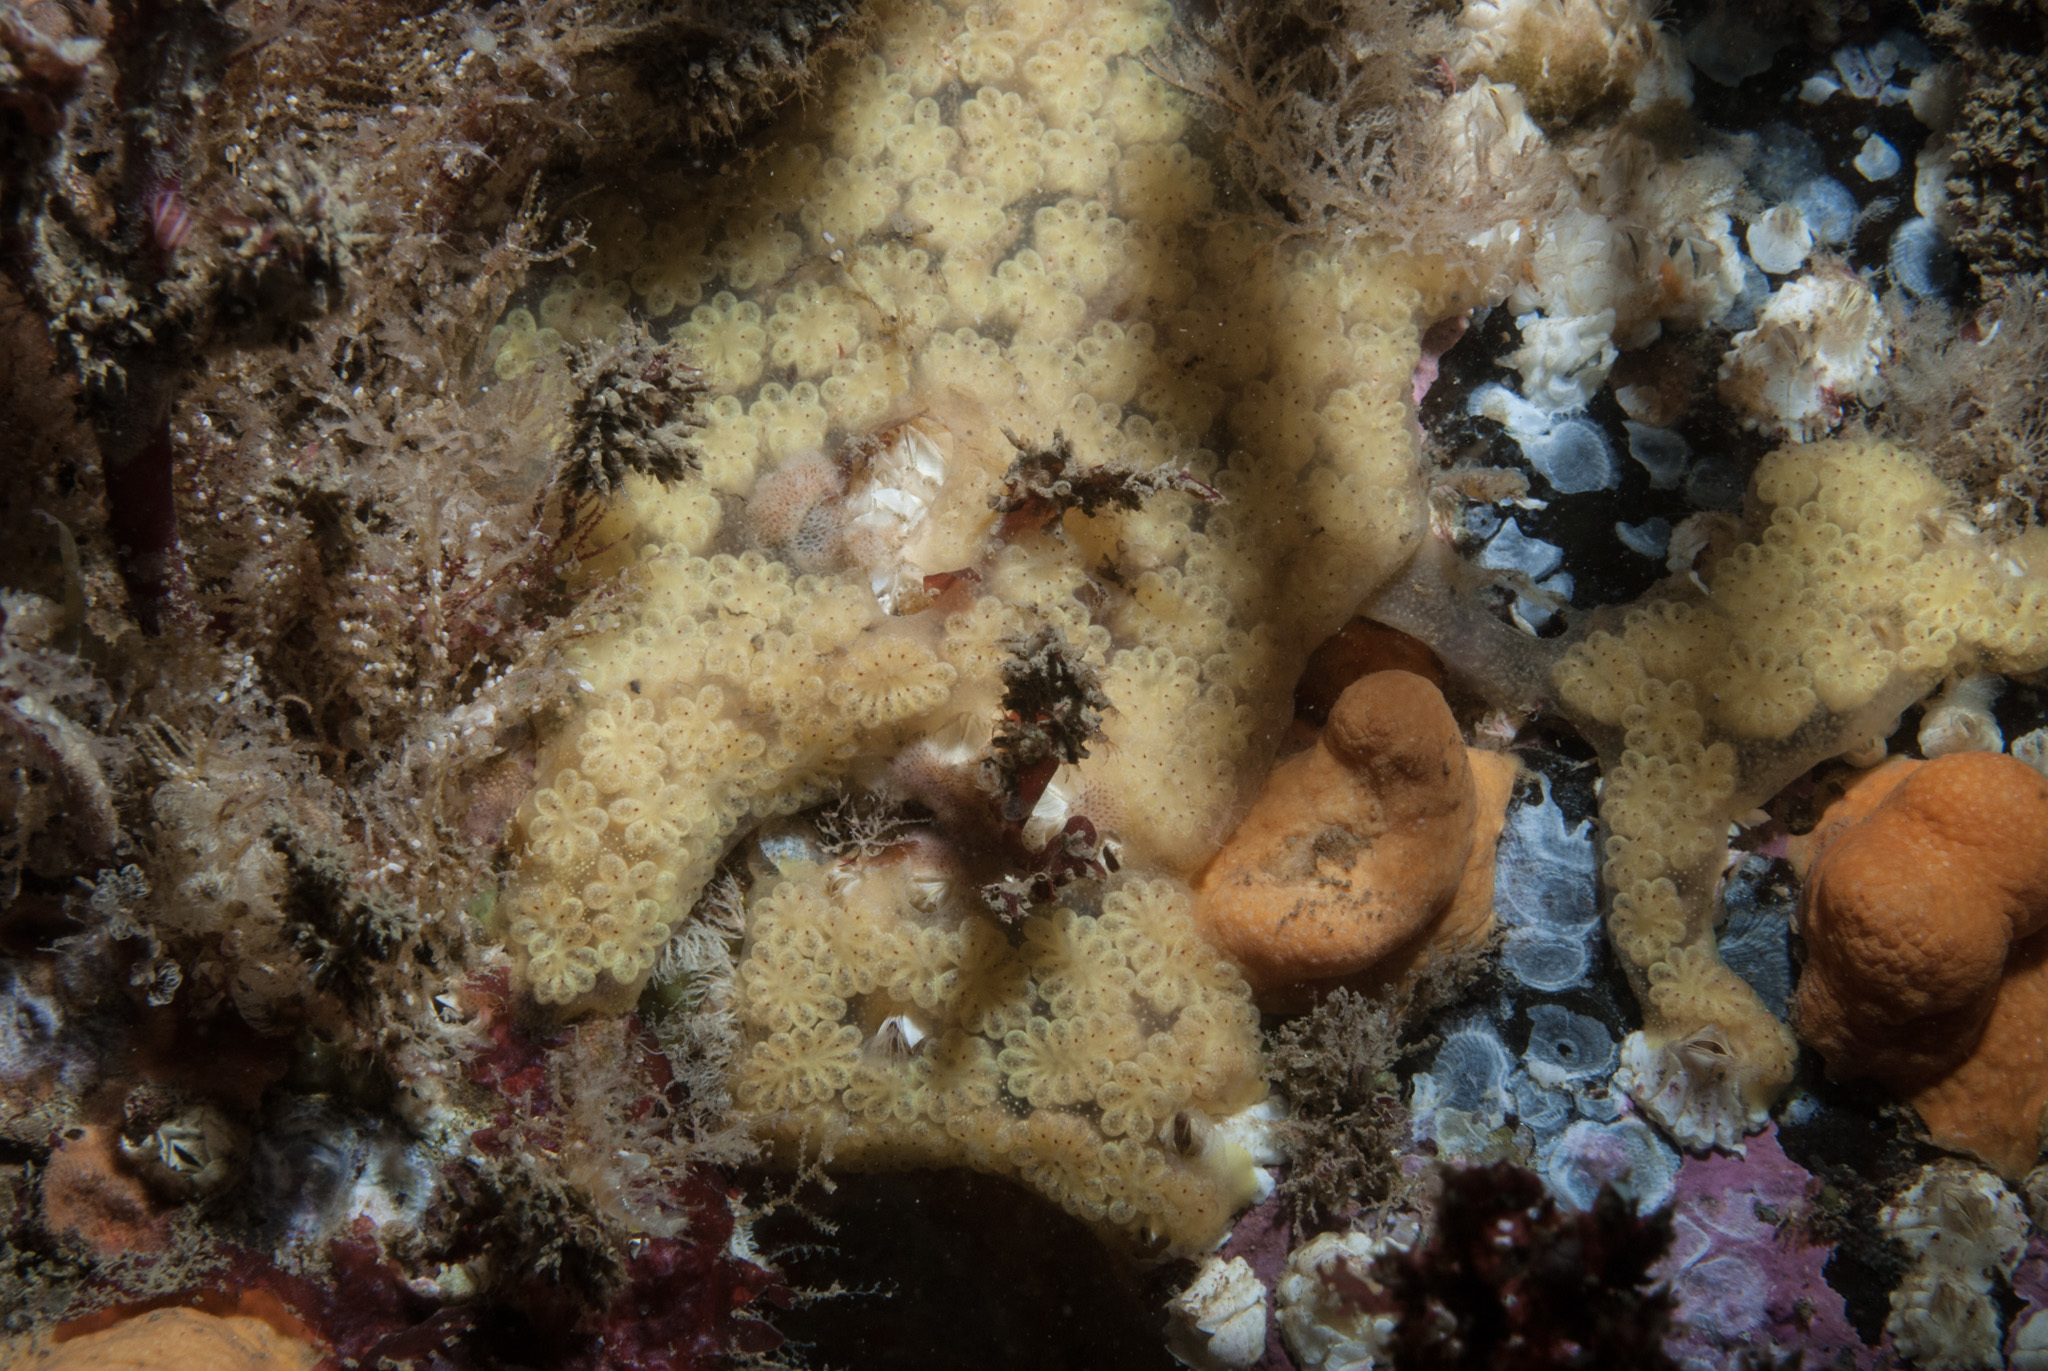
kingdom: Animalia
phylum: Chordata
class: Ascidiacea
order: Stolidobranchia
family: Styelidae
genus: Botryllus
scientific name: Botryllus schlosseri
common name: Golden star tunicate
